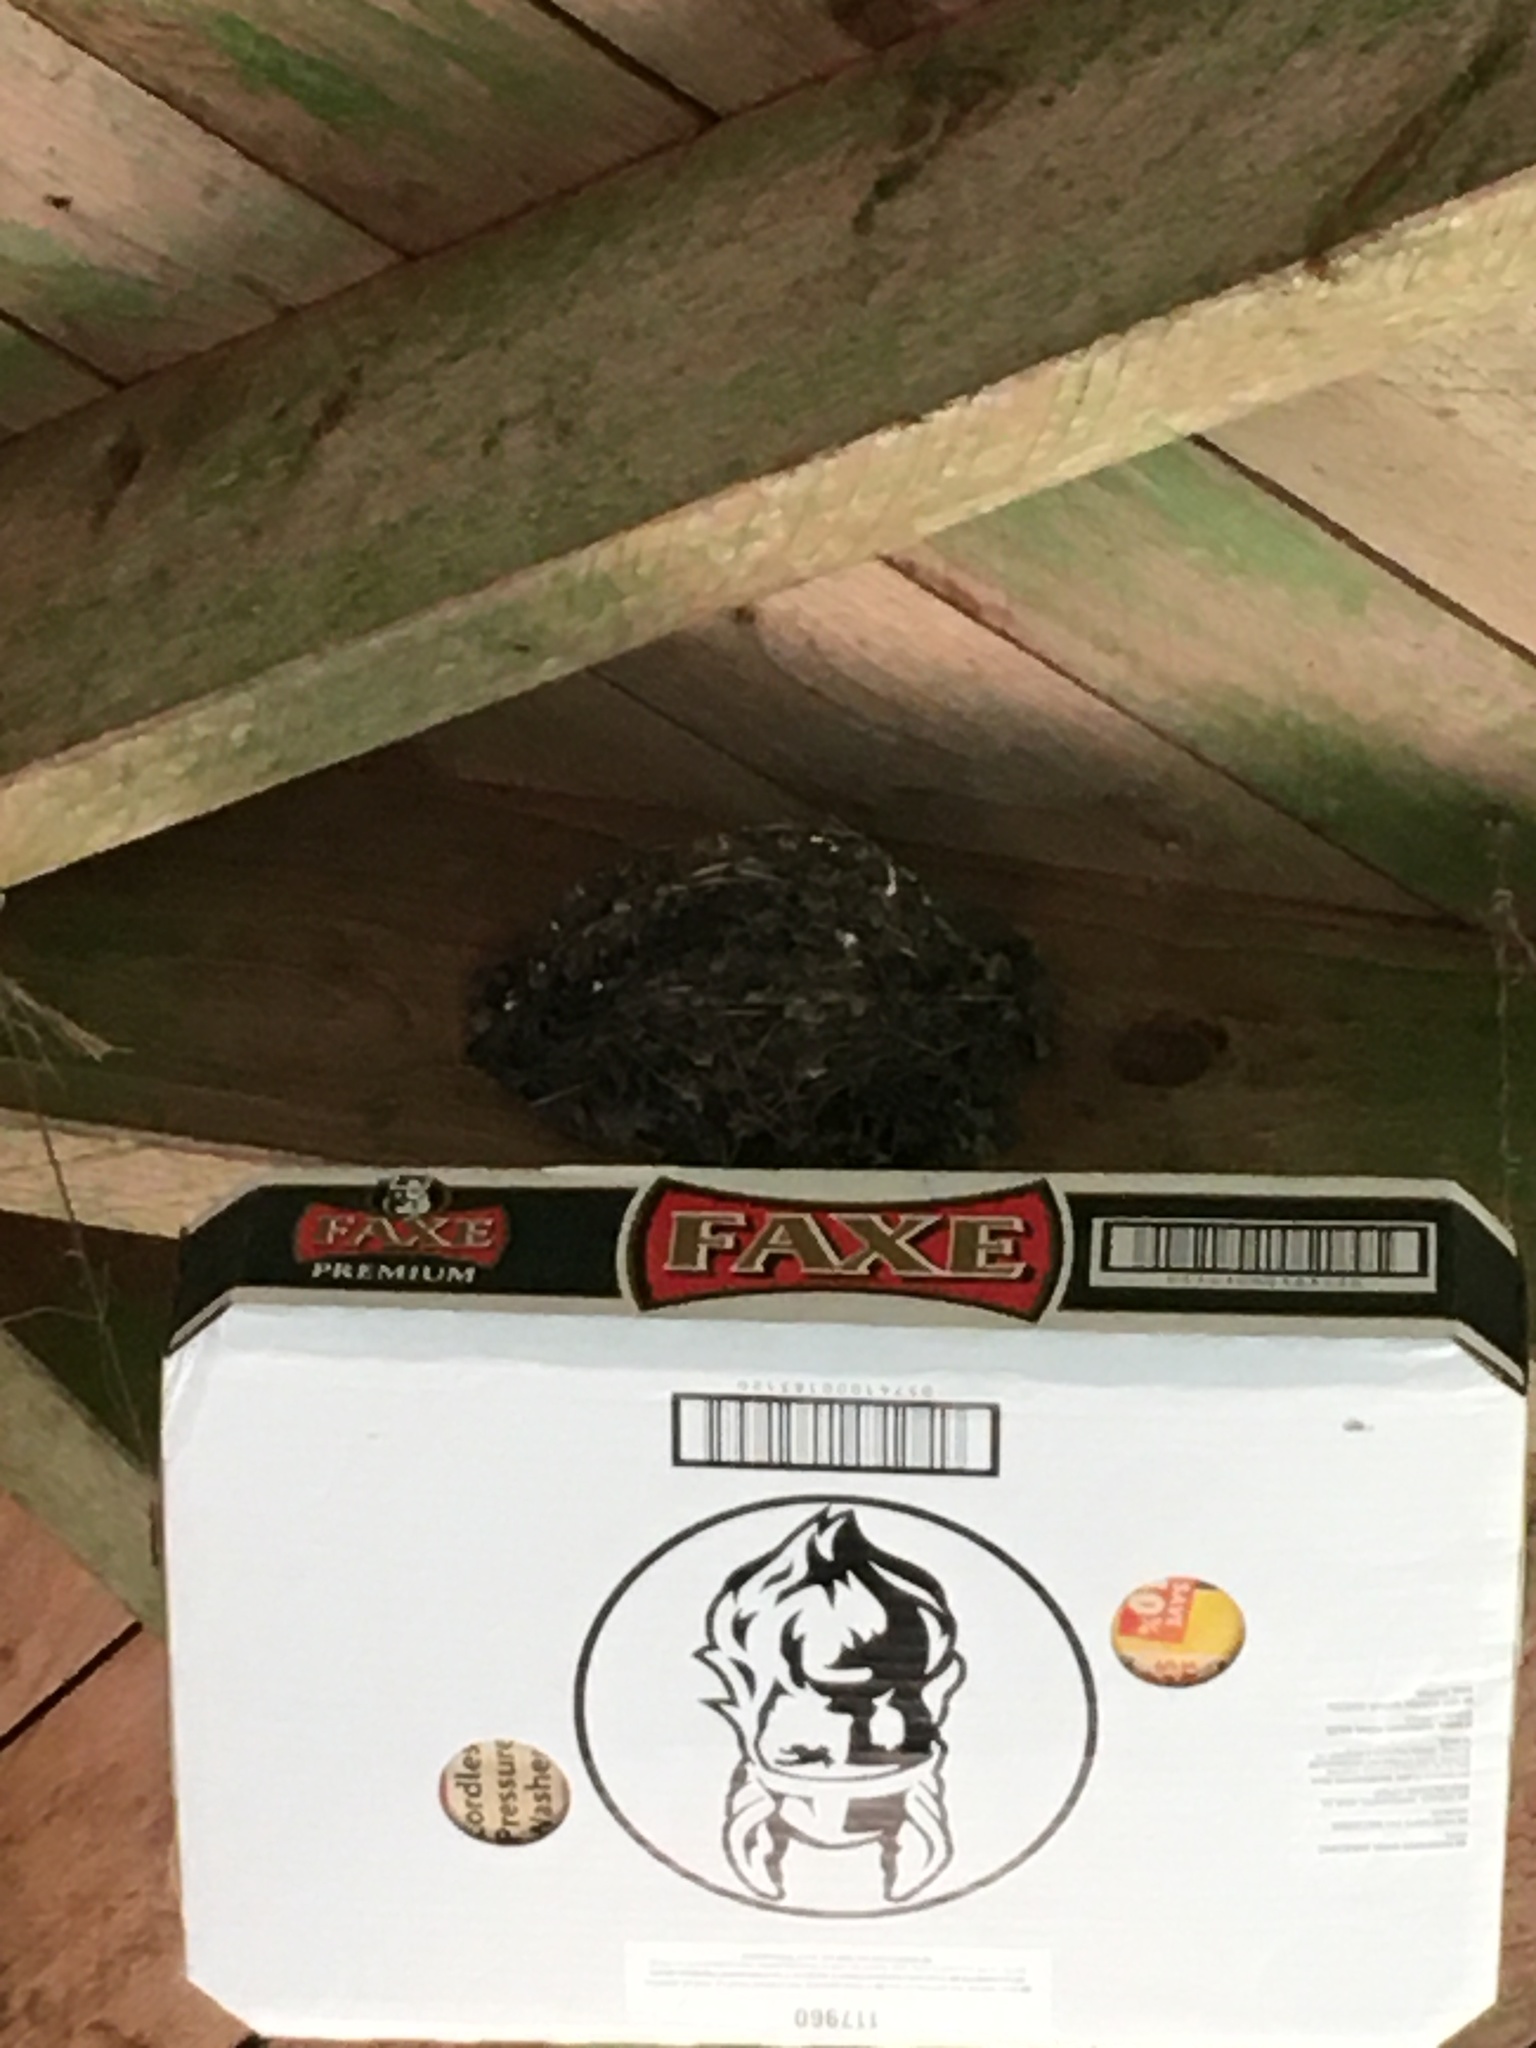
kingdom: Animalia
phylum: Chordata
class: Aves
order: Passeriformes
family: Hirundinidae
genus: Hirundo
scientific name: Hirundo rustica
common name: Barn swallow
